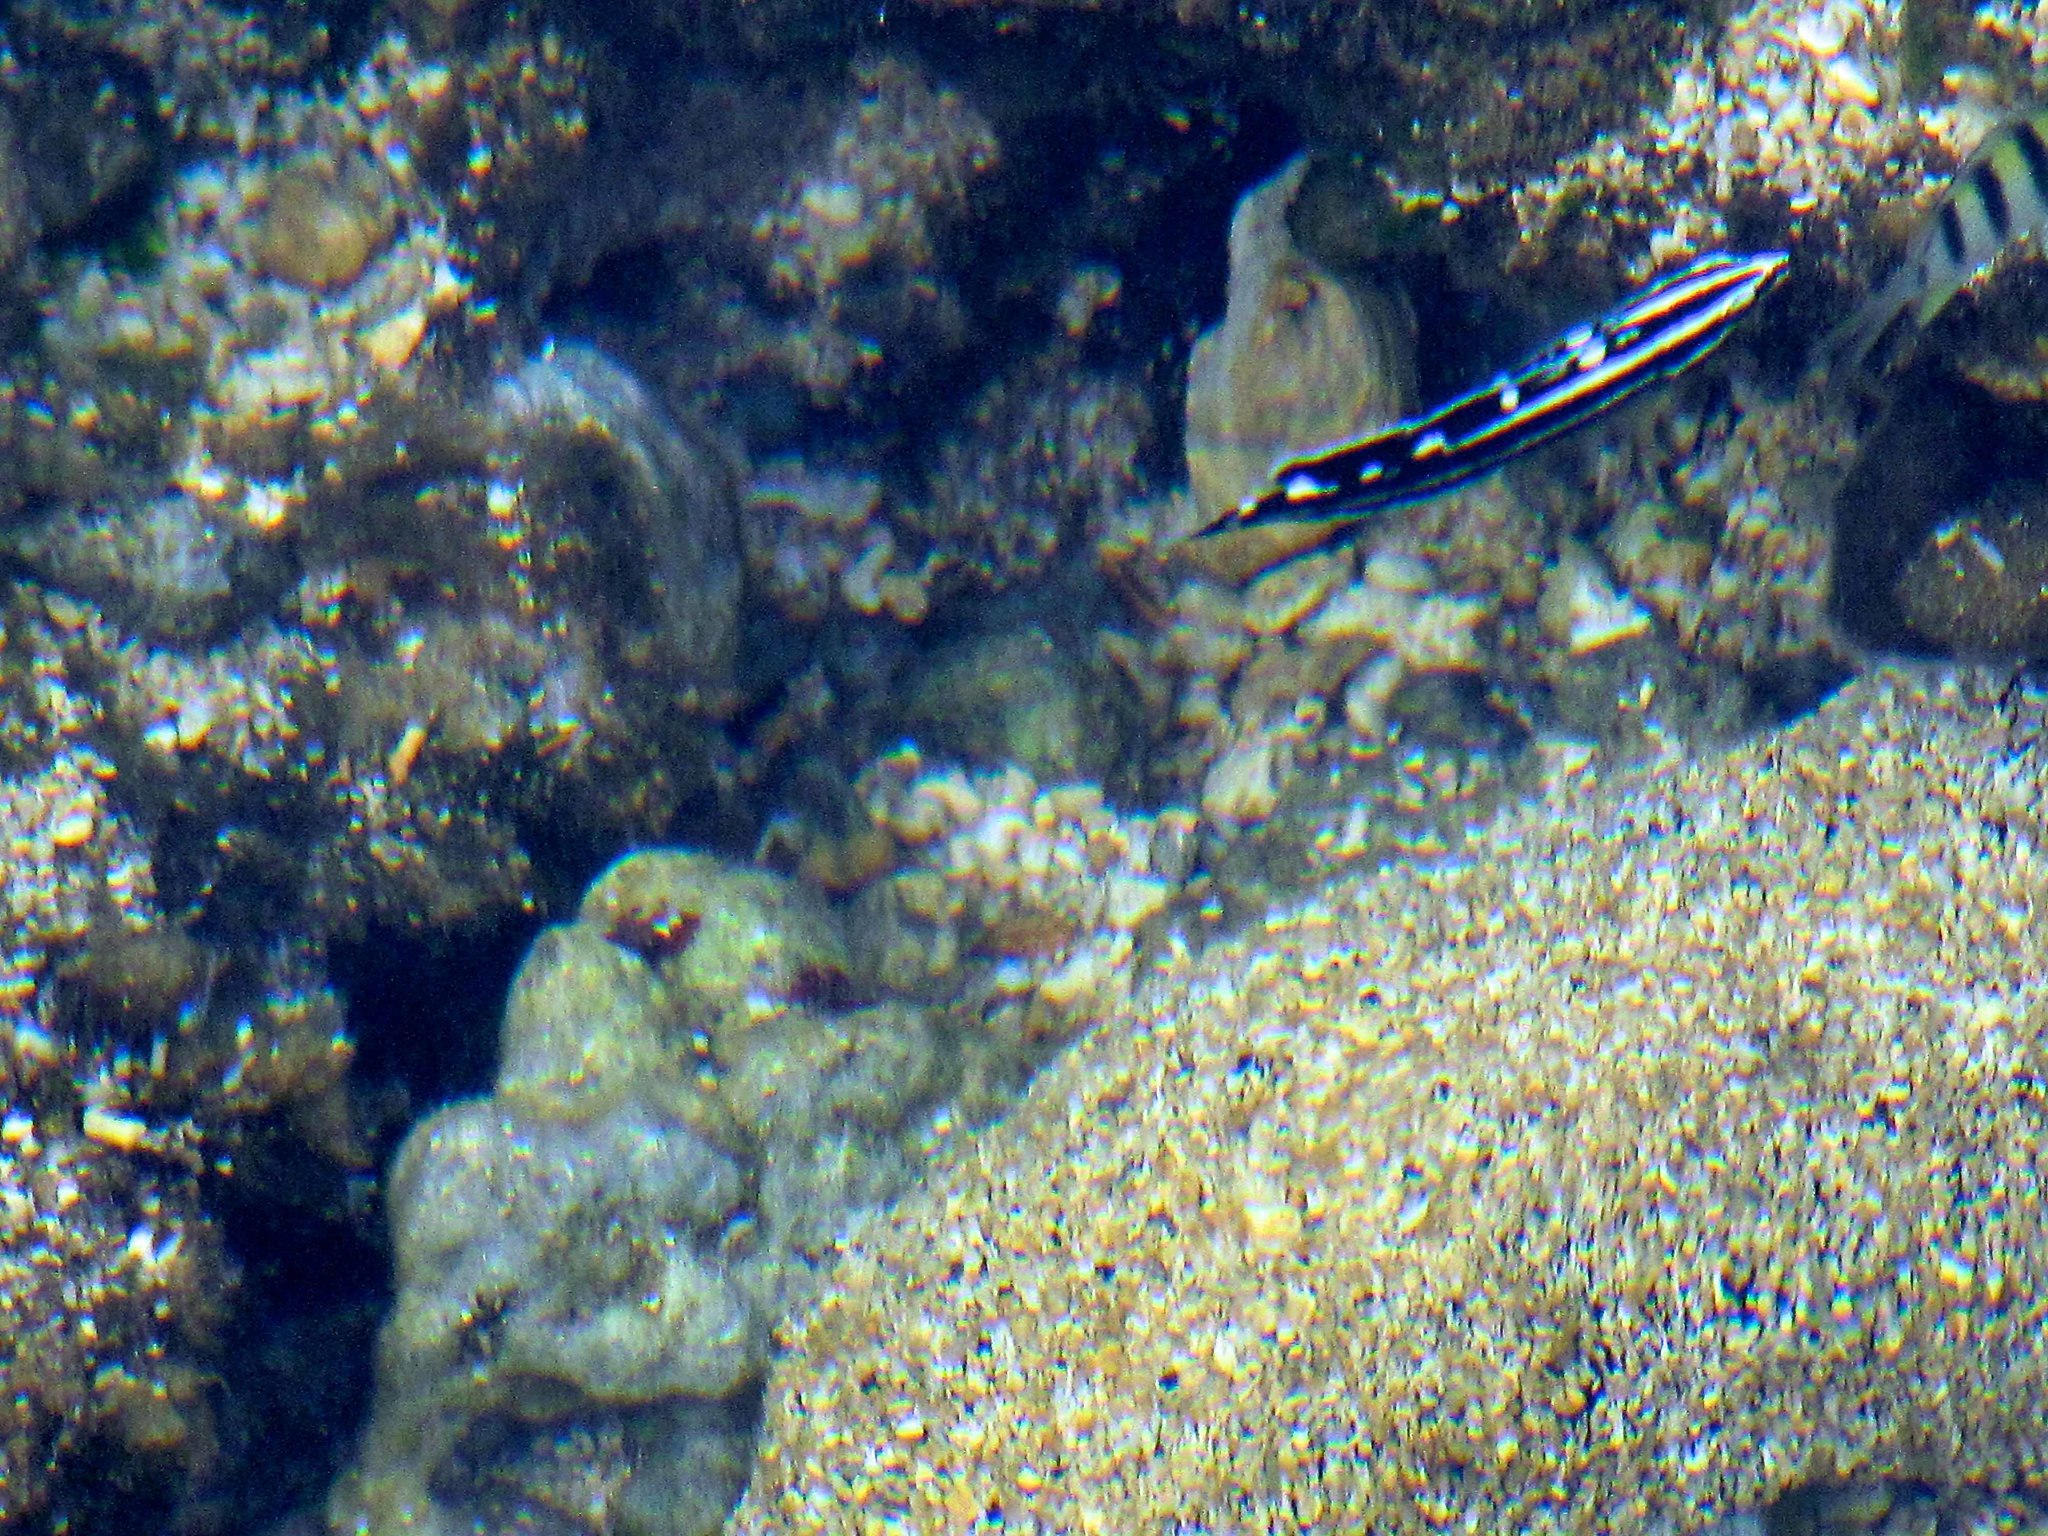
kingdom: Animalia
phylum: Chordata
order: Perciformes
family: Labridae
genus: Coris
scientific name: Coris flavovittata
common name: Yellowstripe coris
